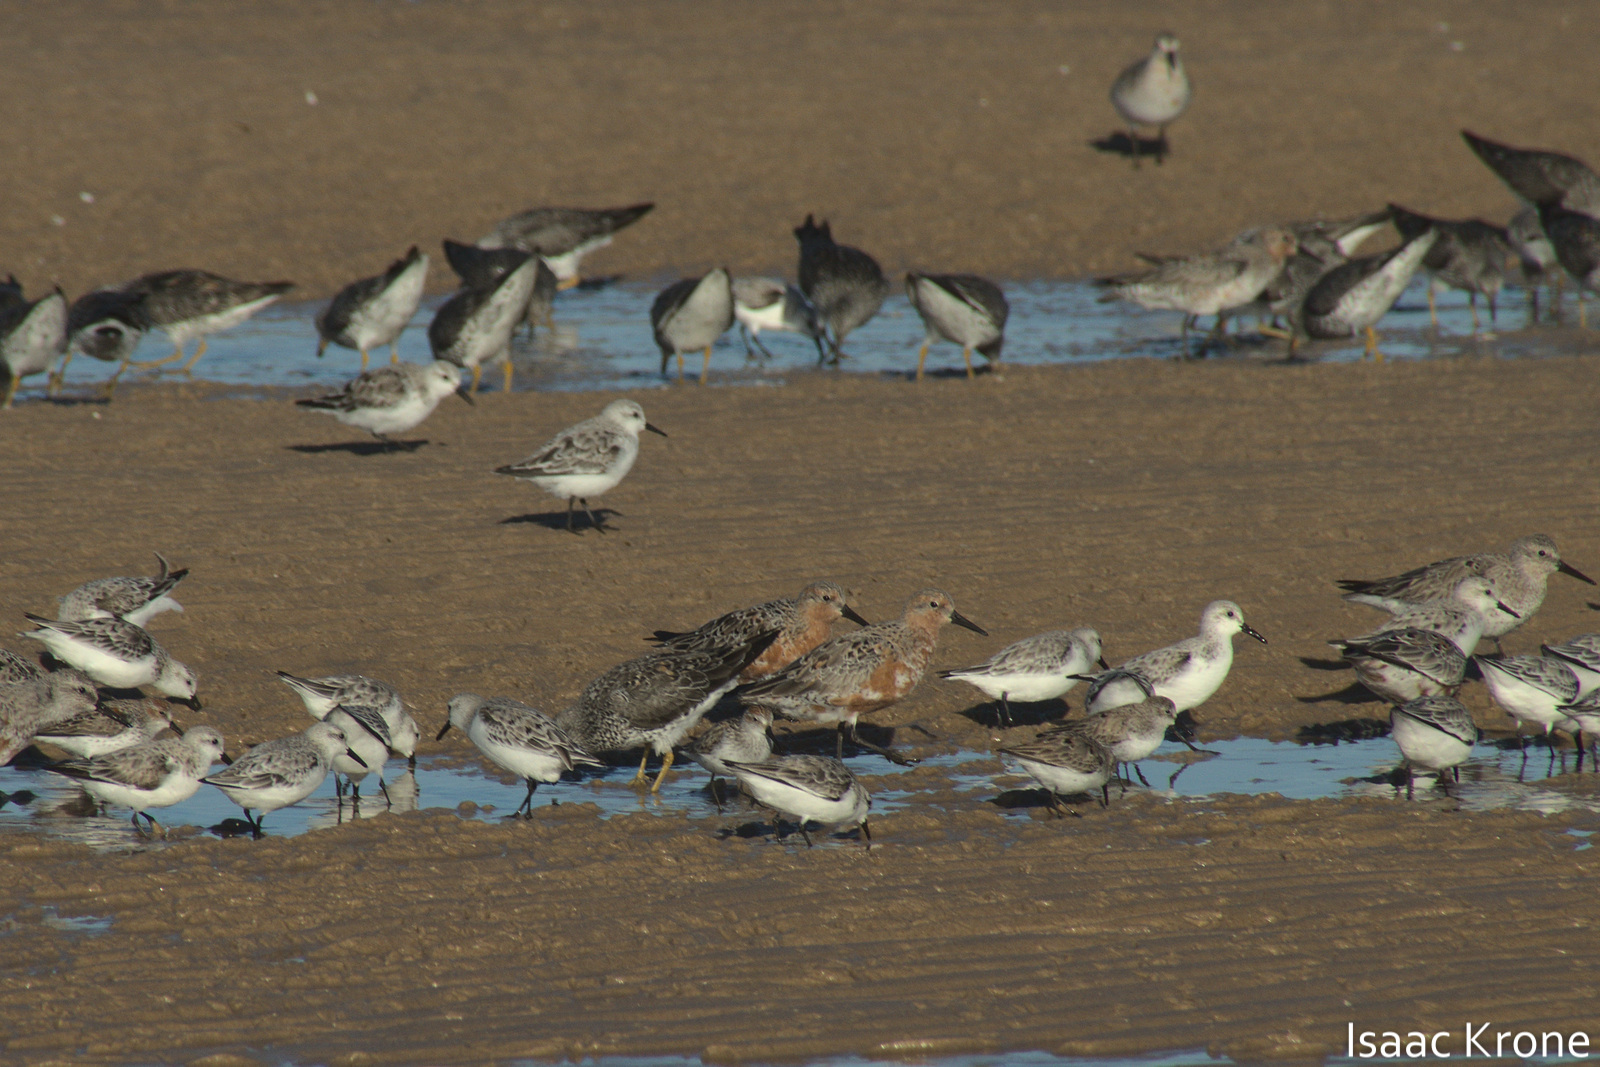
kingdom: Animalia
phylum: Chordata
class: Aves
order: Charadriiformes
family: Scolopacidae
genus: Calidris
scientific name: Calidris alba
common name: Sanderling
